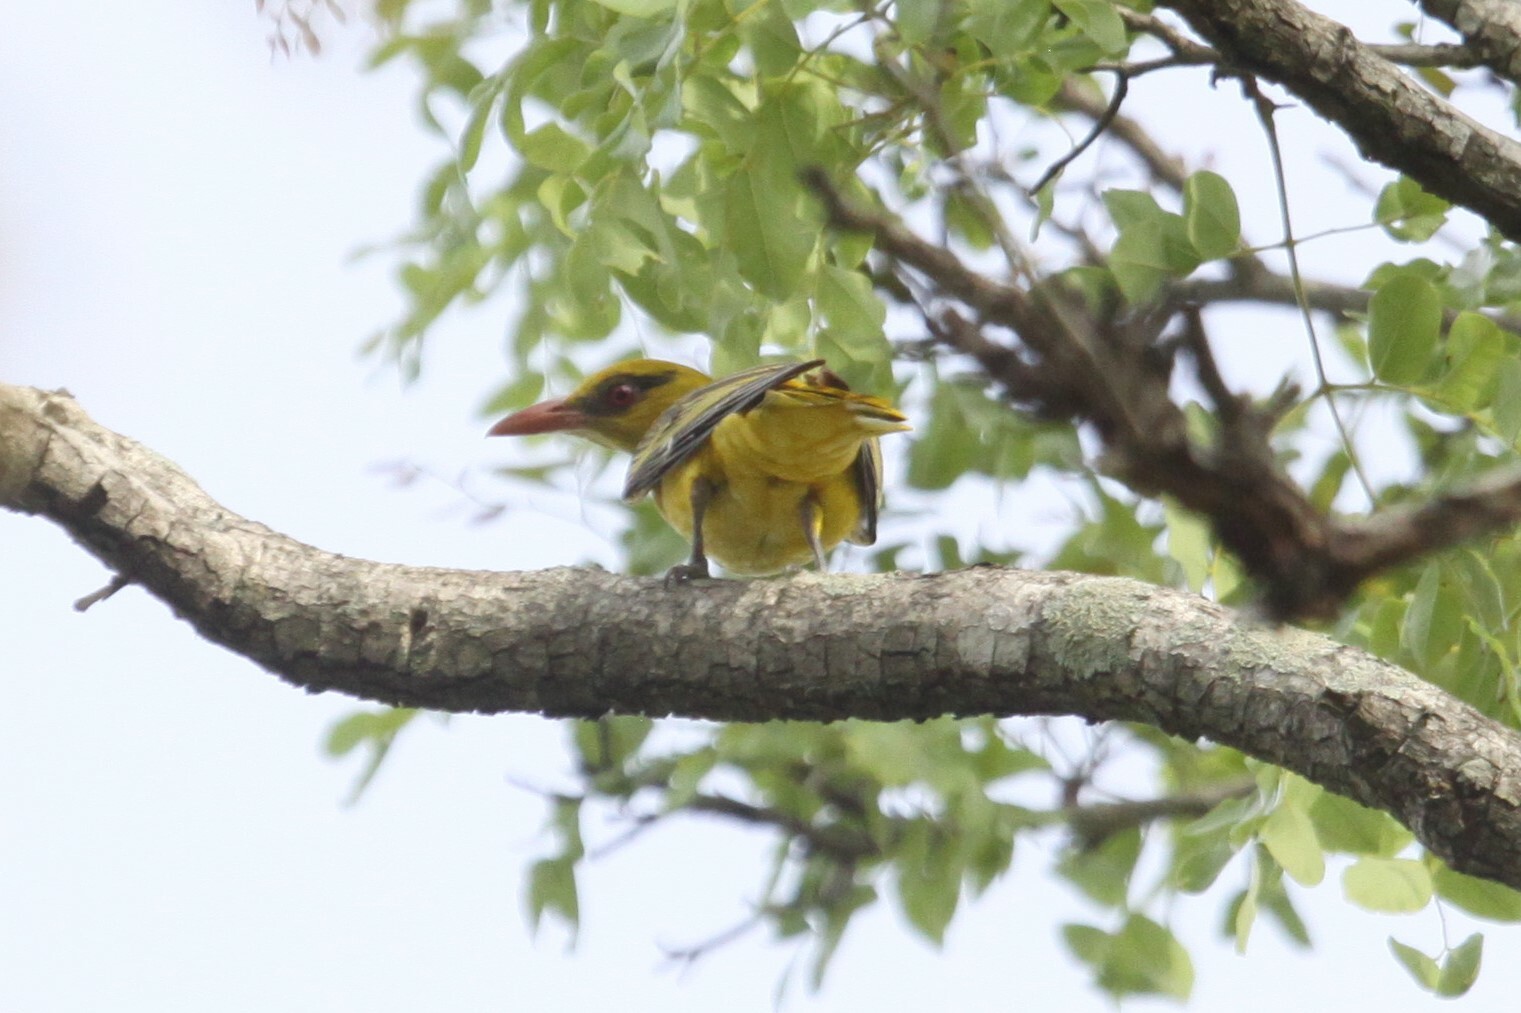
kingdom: Animalia
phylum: Chordata
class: Aves
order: Passeriformes
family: Oriolidae
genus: Oriolus
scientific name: Oriolus auratus
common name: African golden oriole
